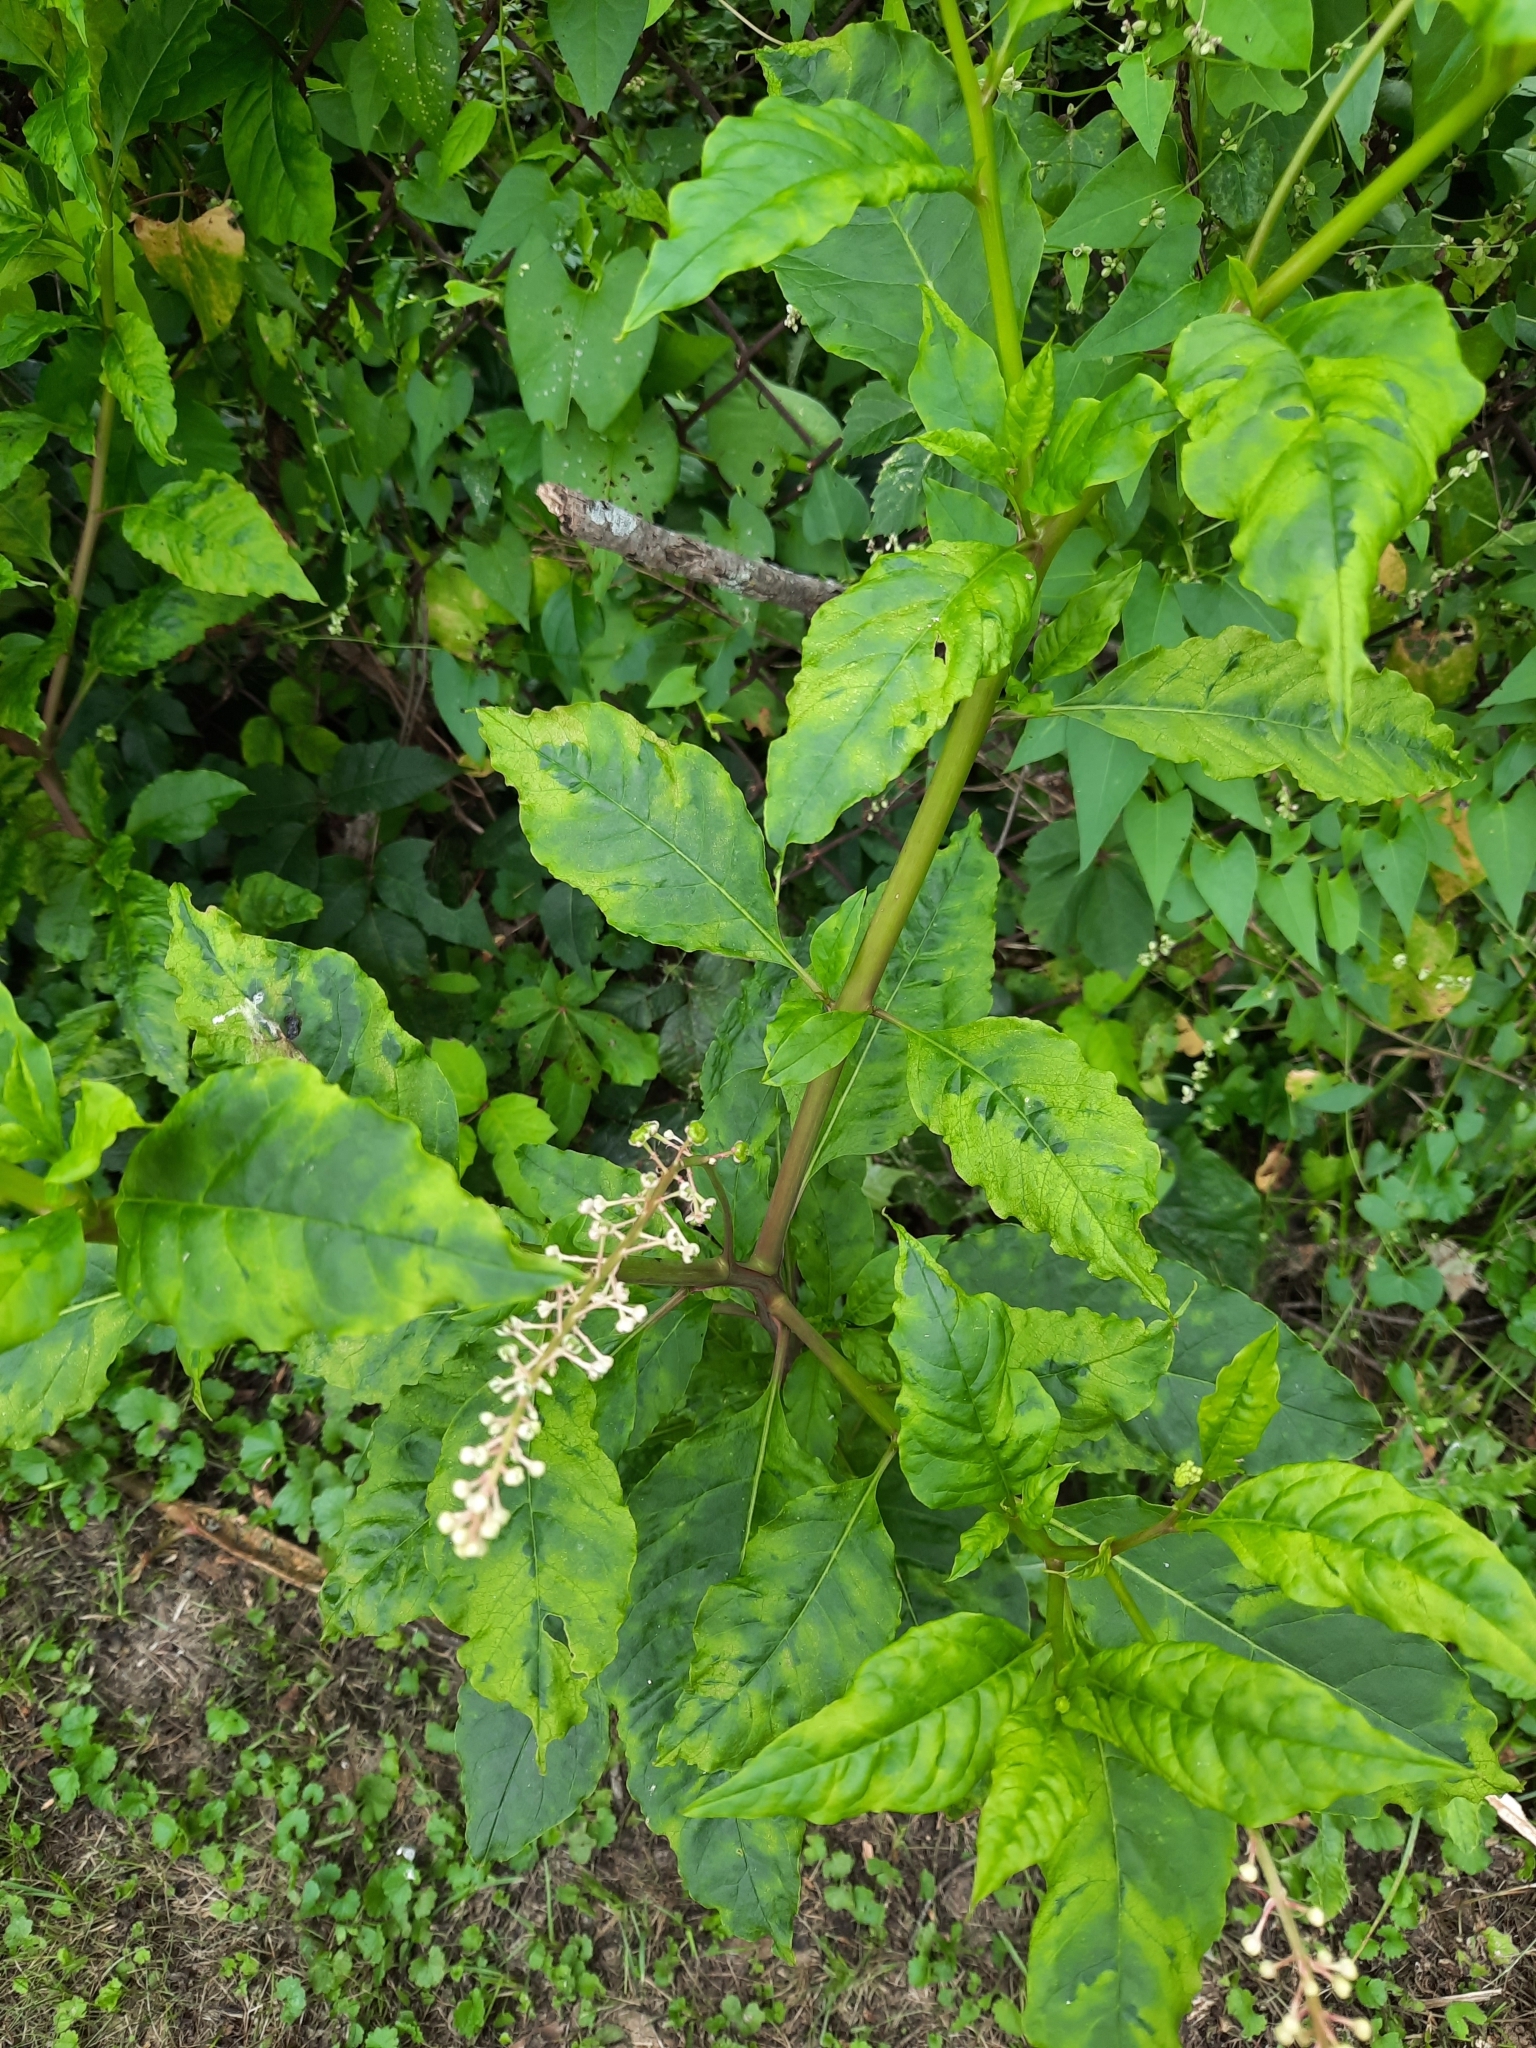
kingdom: Viruses
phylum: Pisuviricota
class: Stelpaviricetes
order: Patatavirales
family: Potyviridae
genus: Potyvirus
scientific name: Potyvirus Pokeweed mosaic virus
